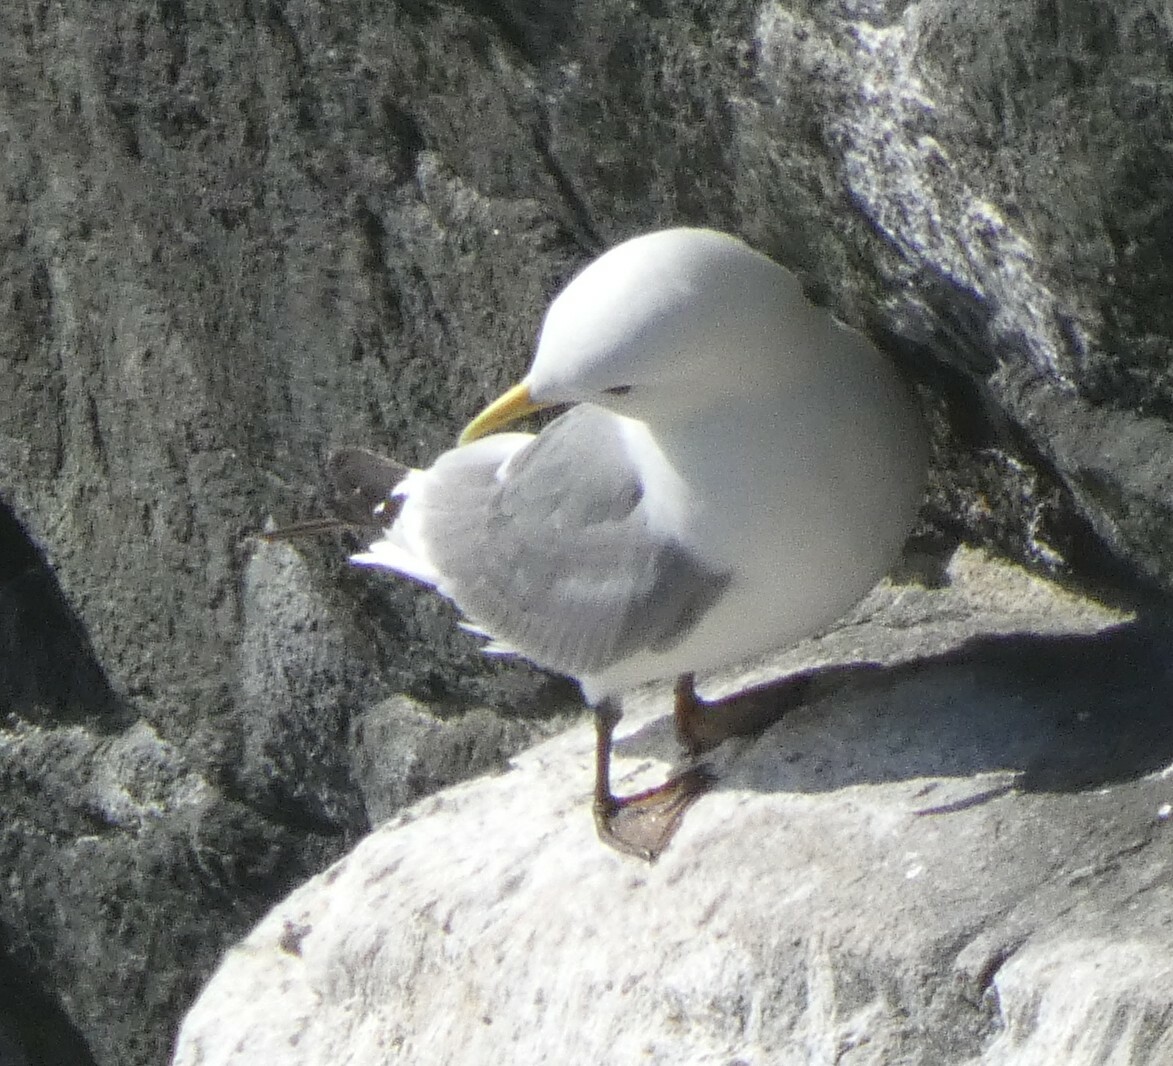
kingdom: Animalia
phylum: Chordata
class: Aves
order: Charadriiformes
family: Laridae
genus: Rissa
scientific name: Rissa tridactyla
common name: Black-legged kittiwake
